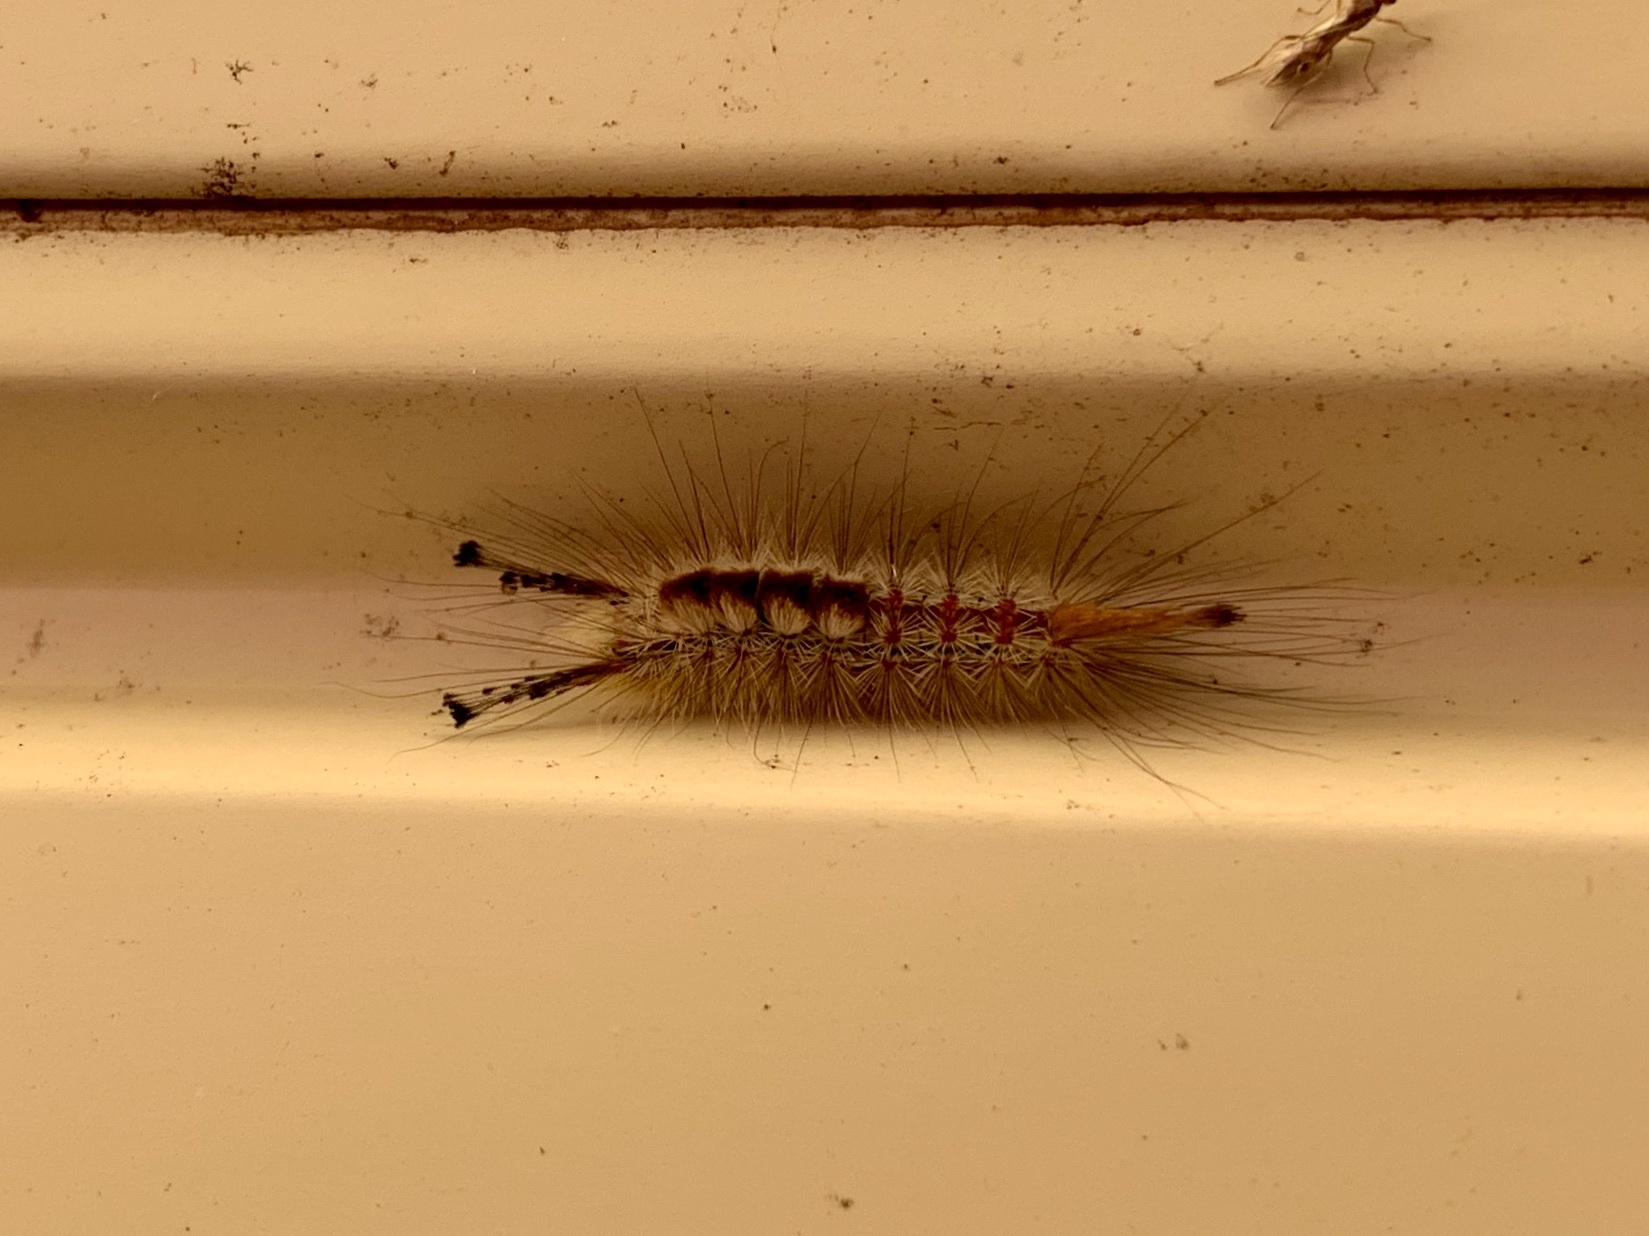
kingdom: Animalia
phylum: Arthropoda
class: Insecta
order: Lepidoptera
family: Erebidae
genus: Orgyia
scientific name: Orgyia pseudotsugata
